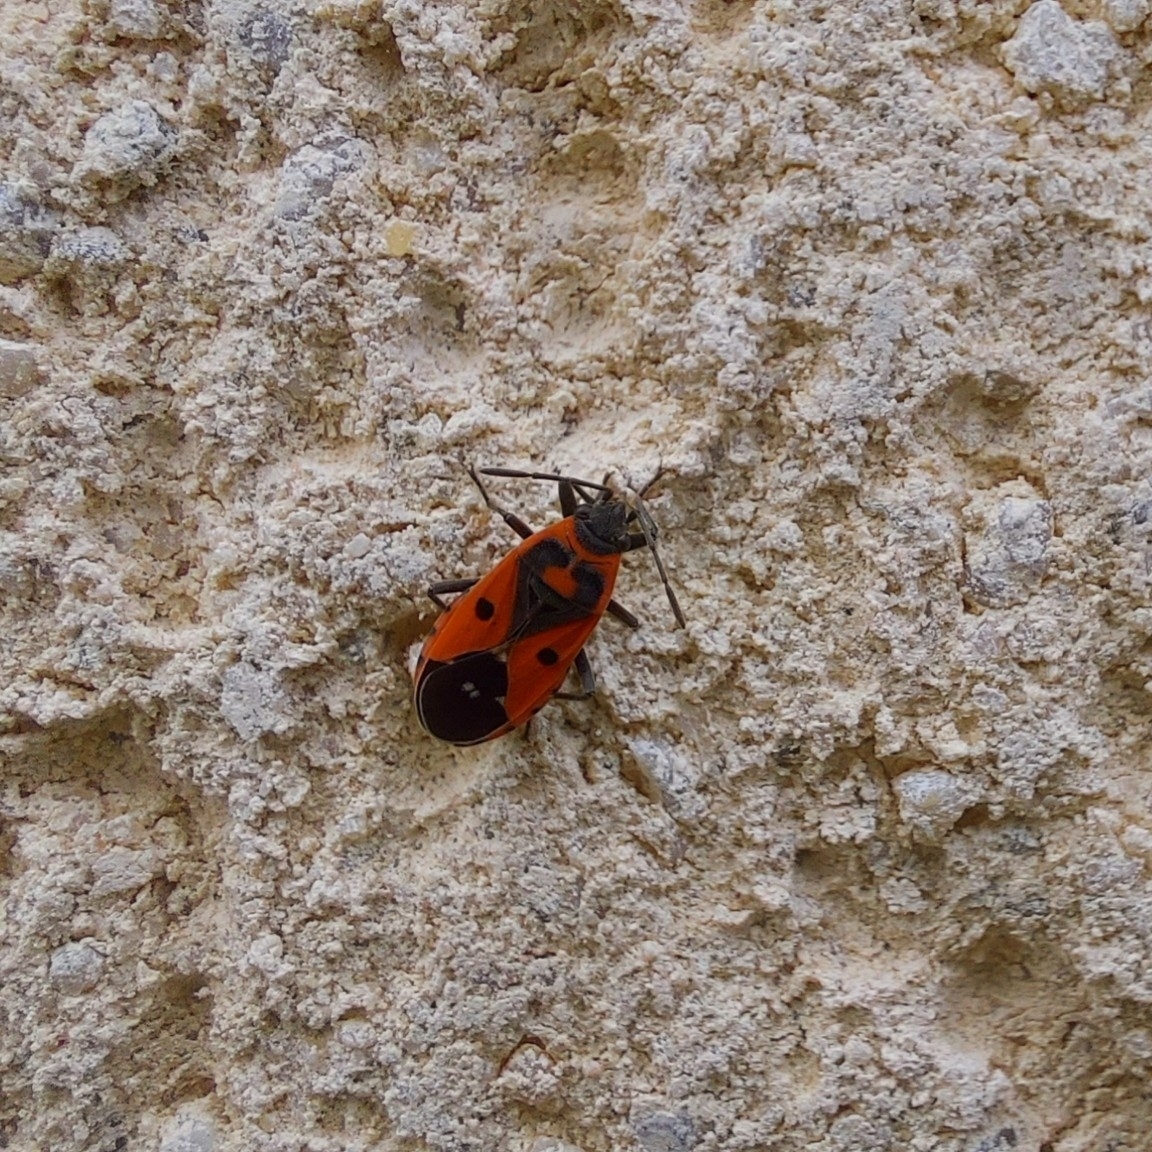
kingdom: Animalia
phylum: Arthropoda
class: Insecta
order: Hemiptera
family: Lygaeidae
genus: Melanocoryphus
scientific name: Melanocoryphus albomaculatus
